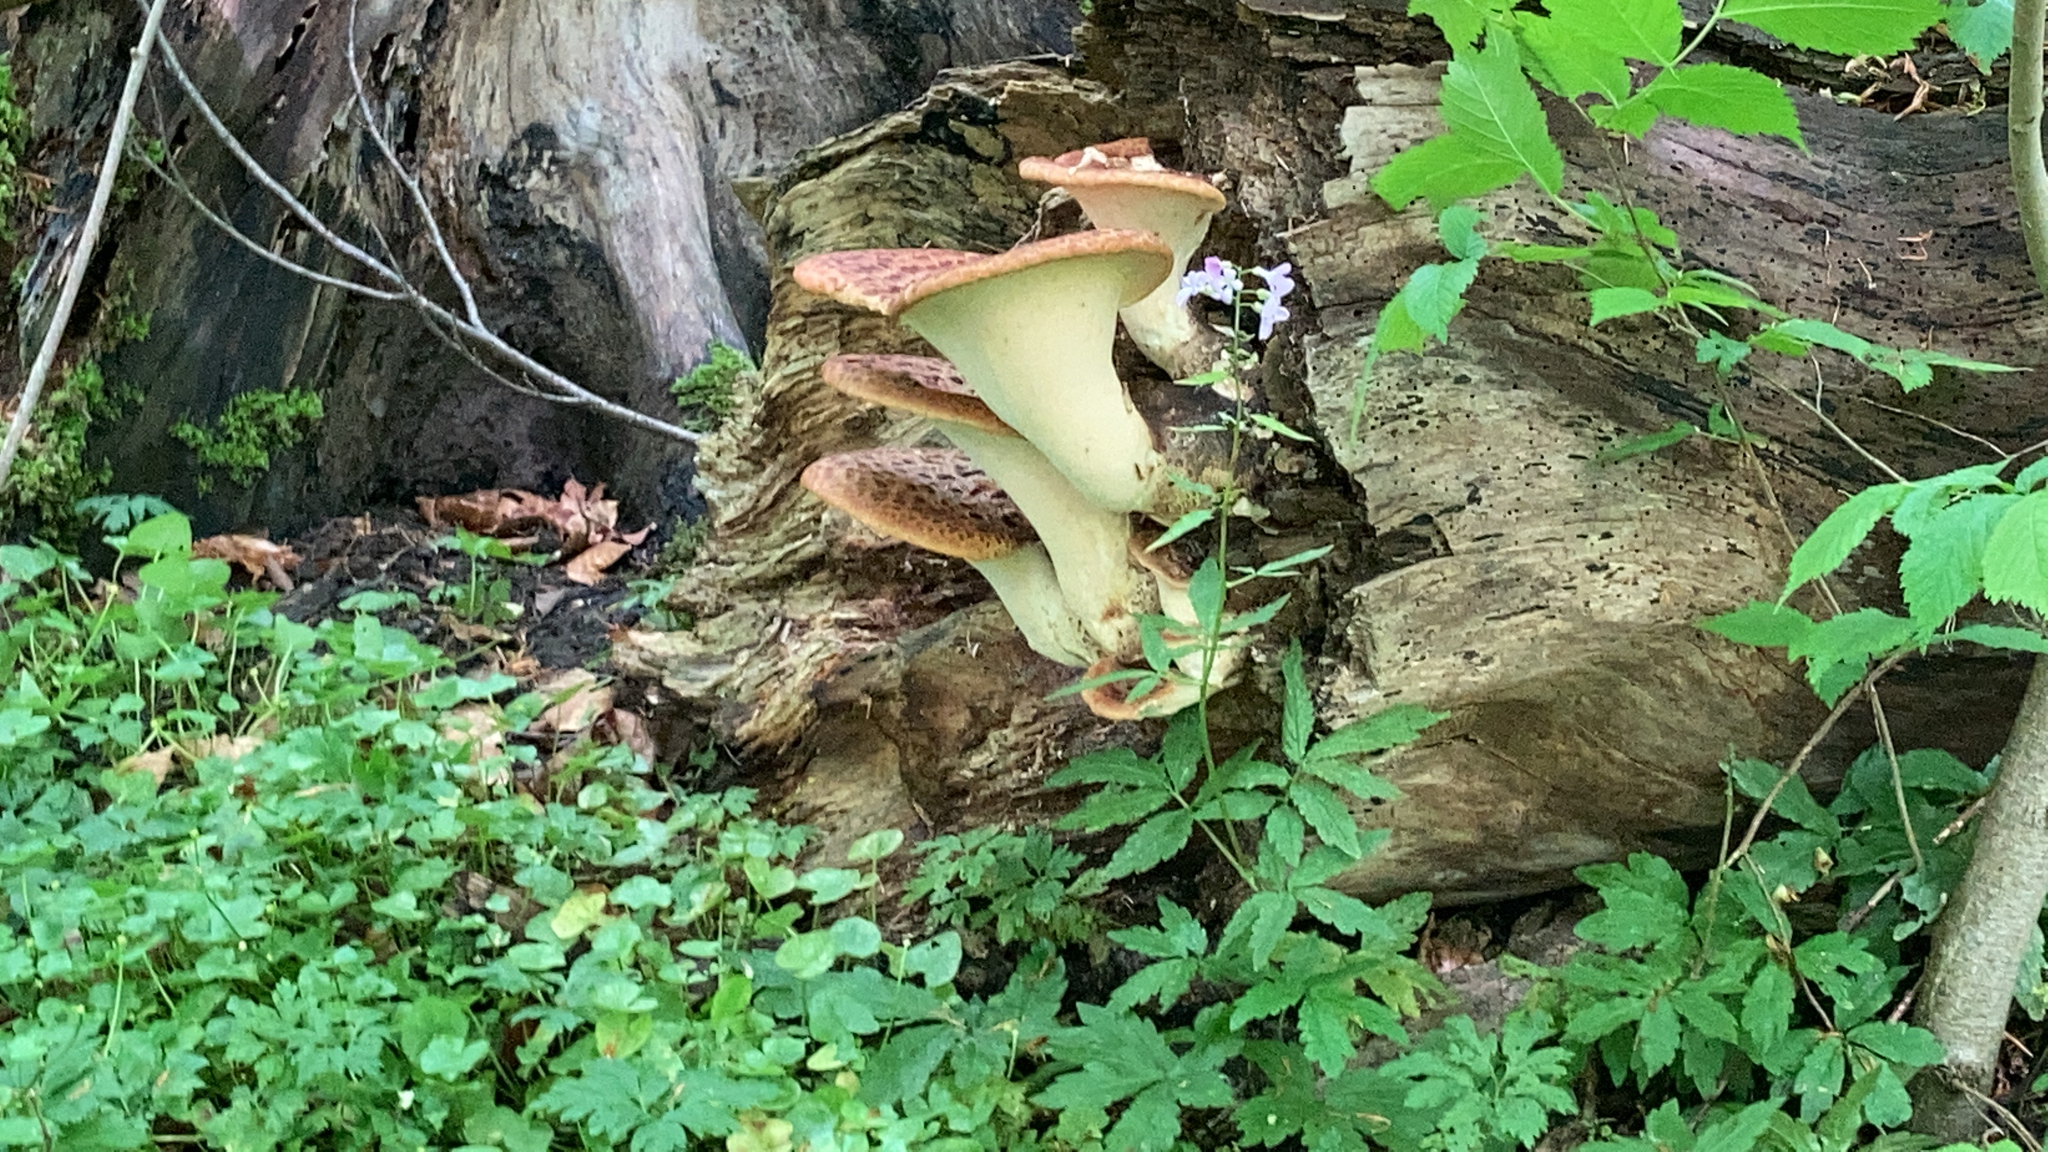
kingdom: Fungi
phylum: Basidiomycota
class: Agaricomycetes
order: Polyporales
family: Polyporaceae
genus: Cerioporus
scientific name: Cerioporus squamosus
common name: Dryad's saddle
